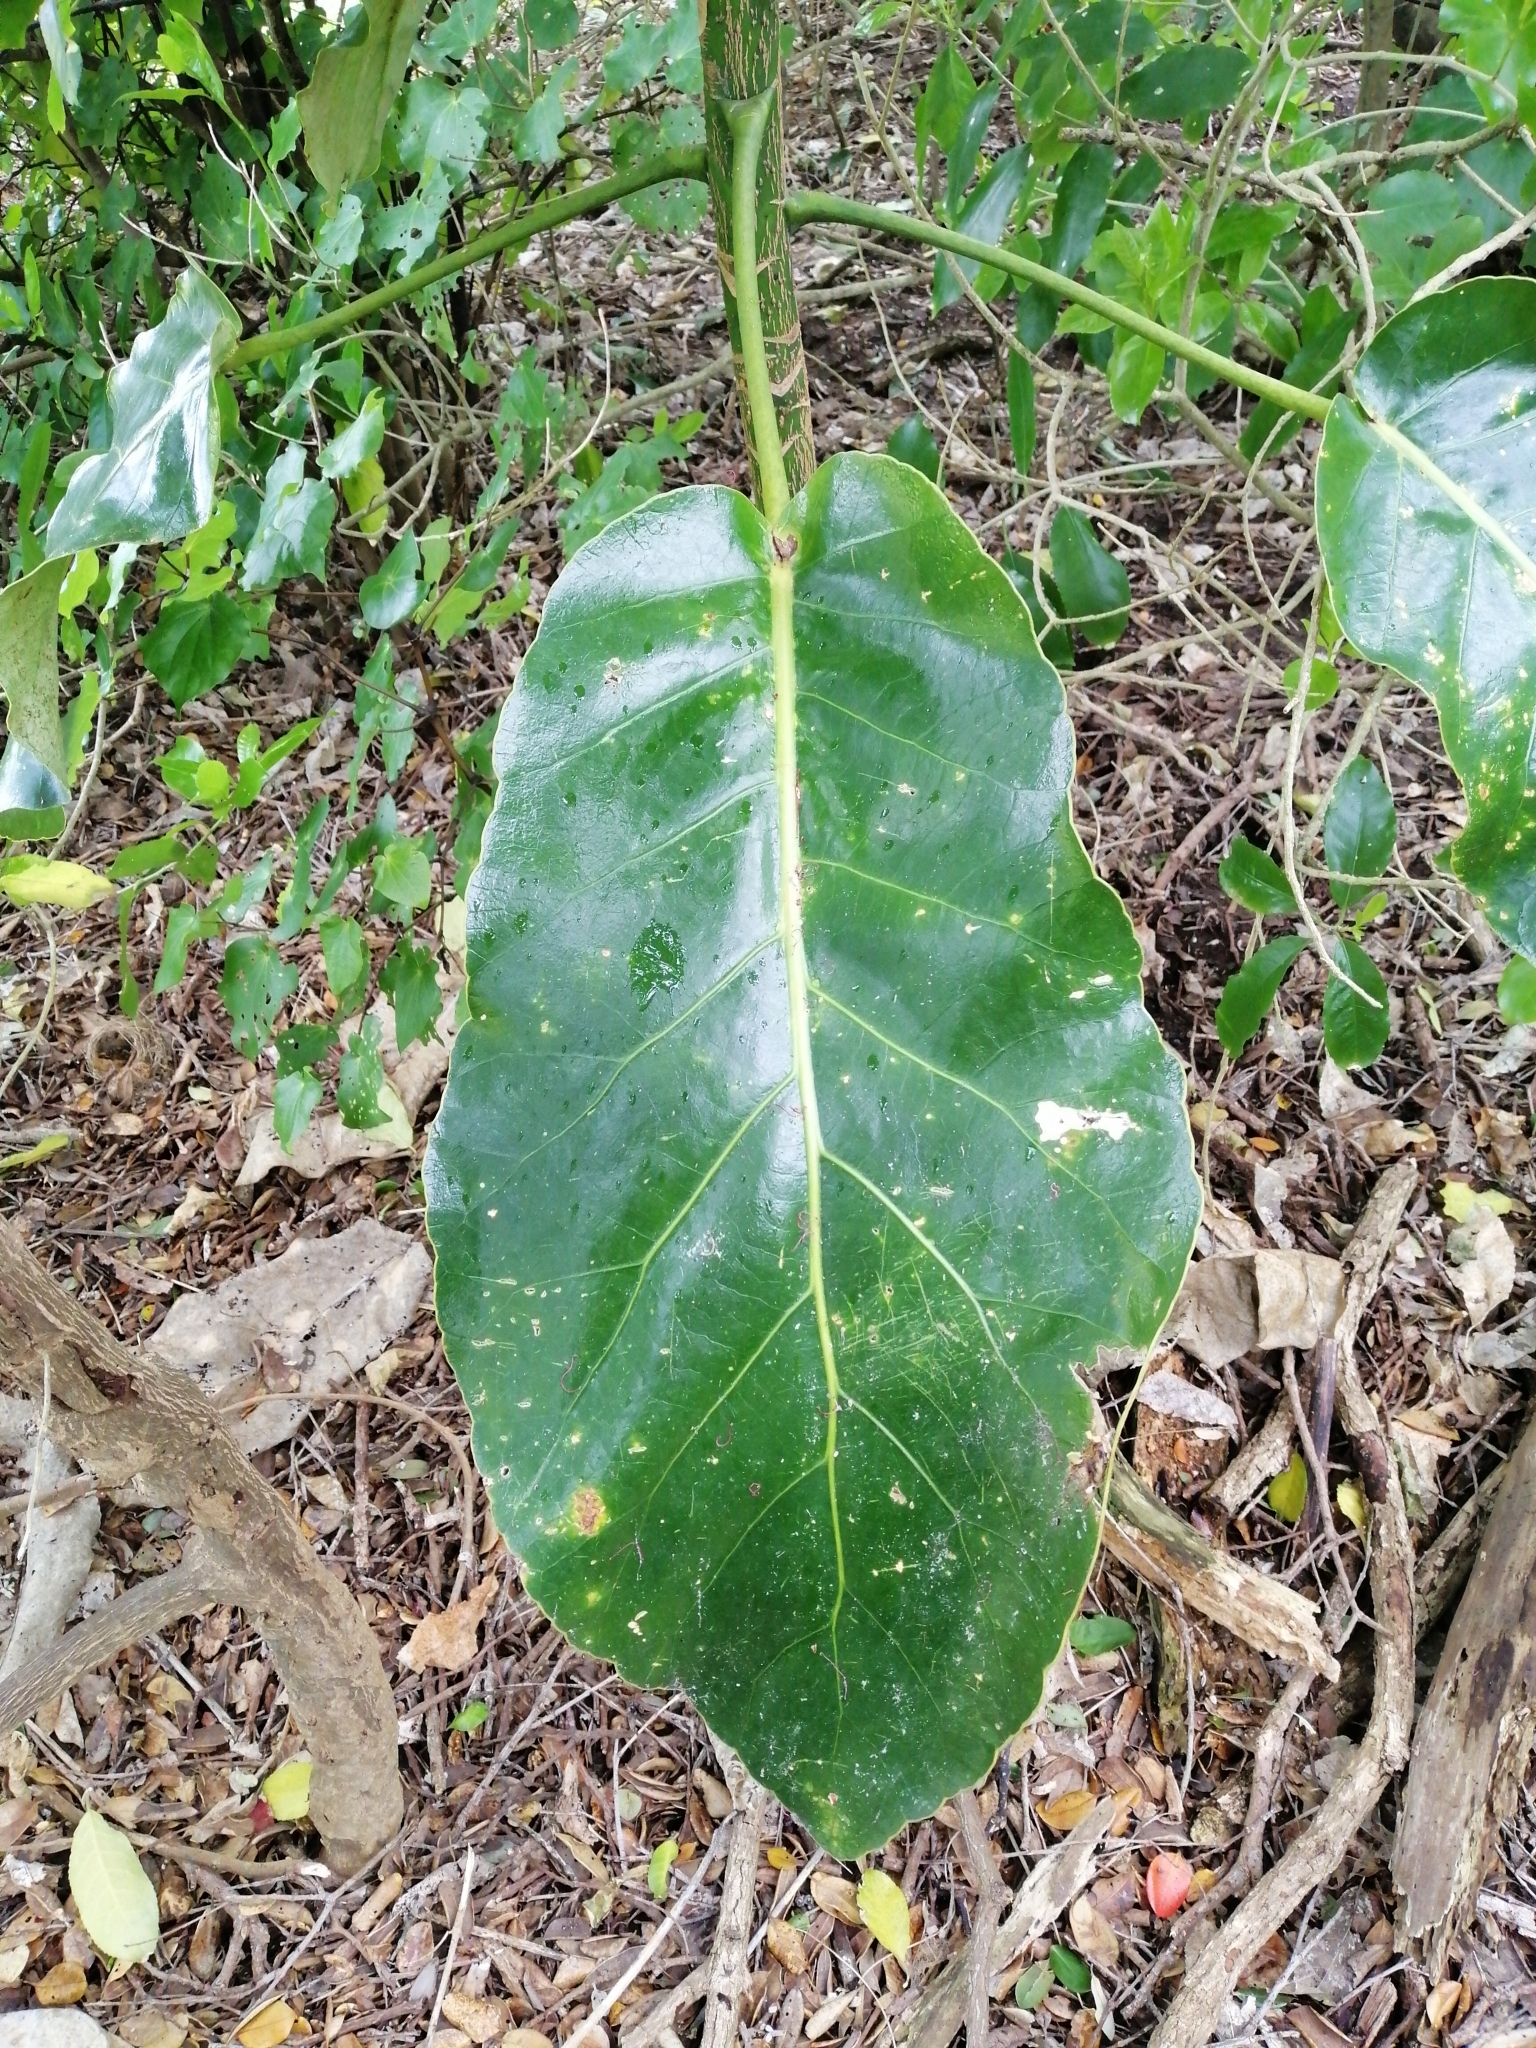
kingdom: Plantae
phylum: Tracheophyta
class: Magnoliopsida
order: Apiales
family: Araliaceae
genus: Meryta
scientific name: Meryta sinclairii
